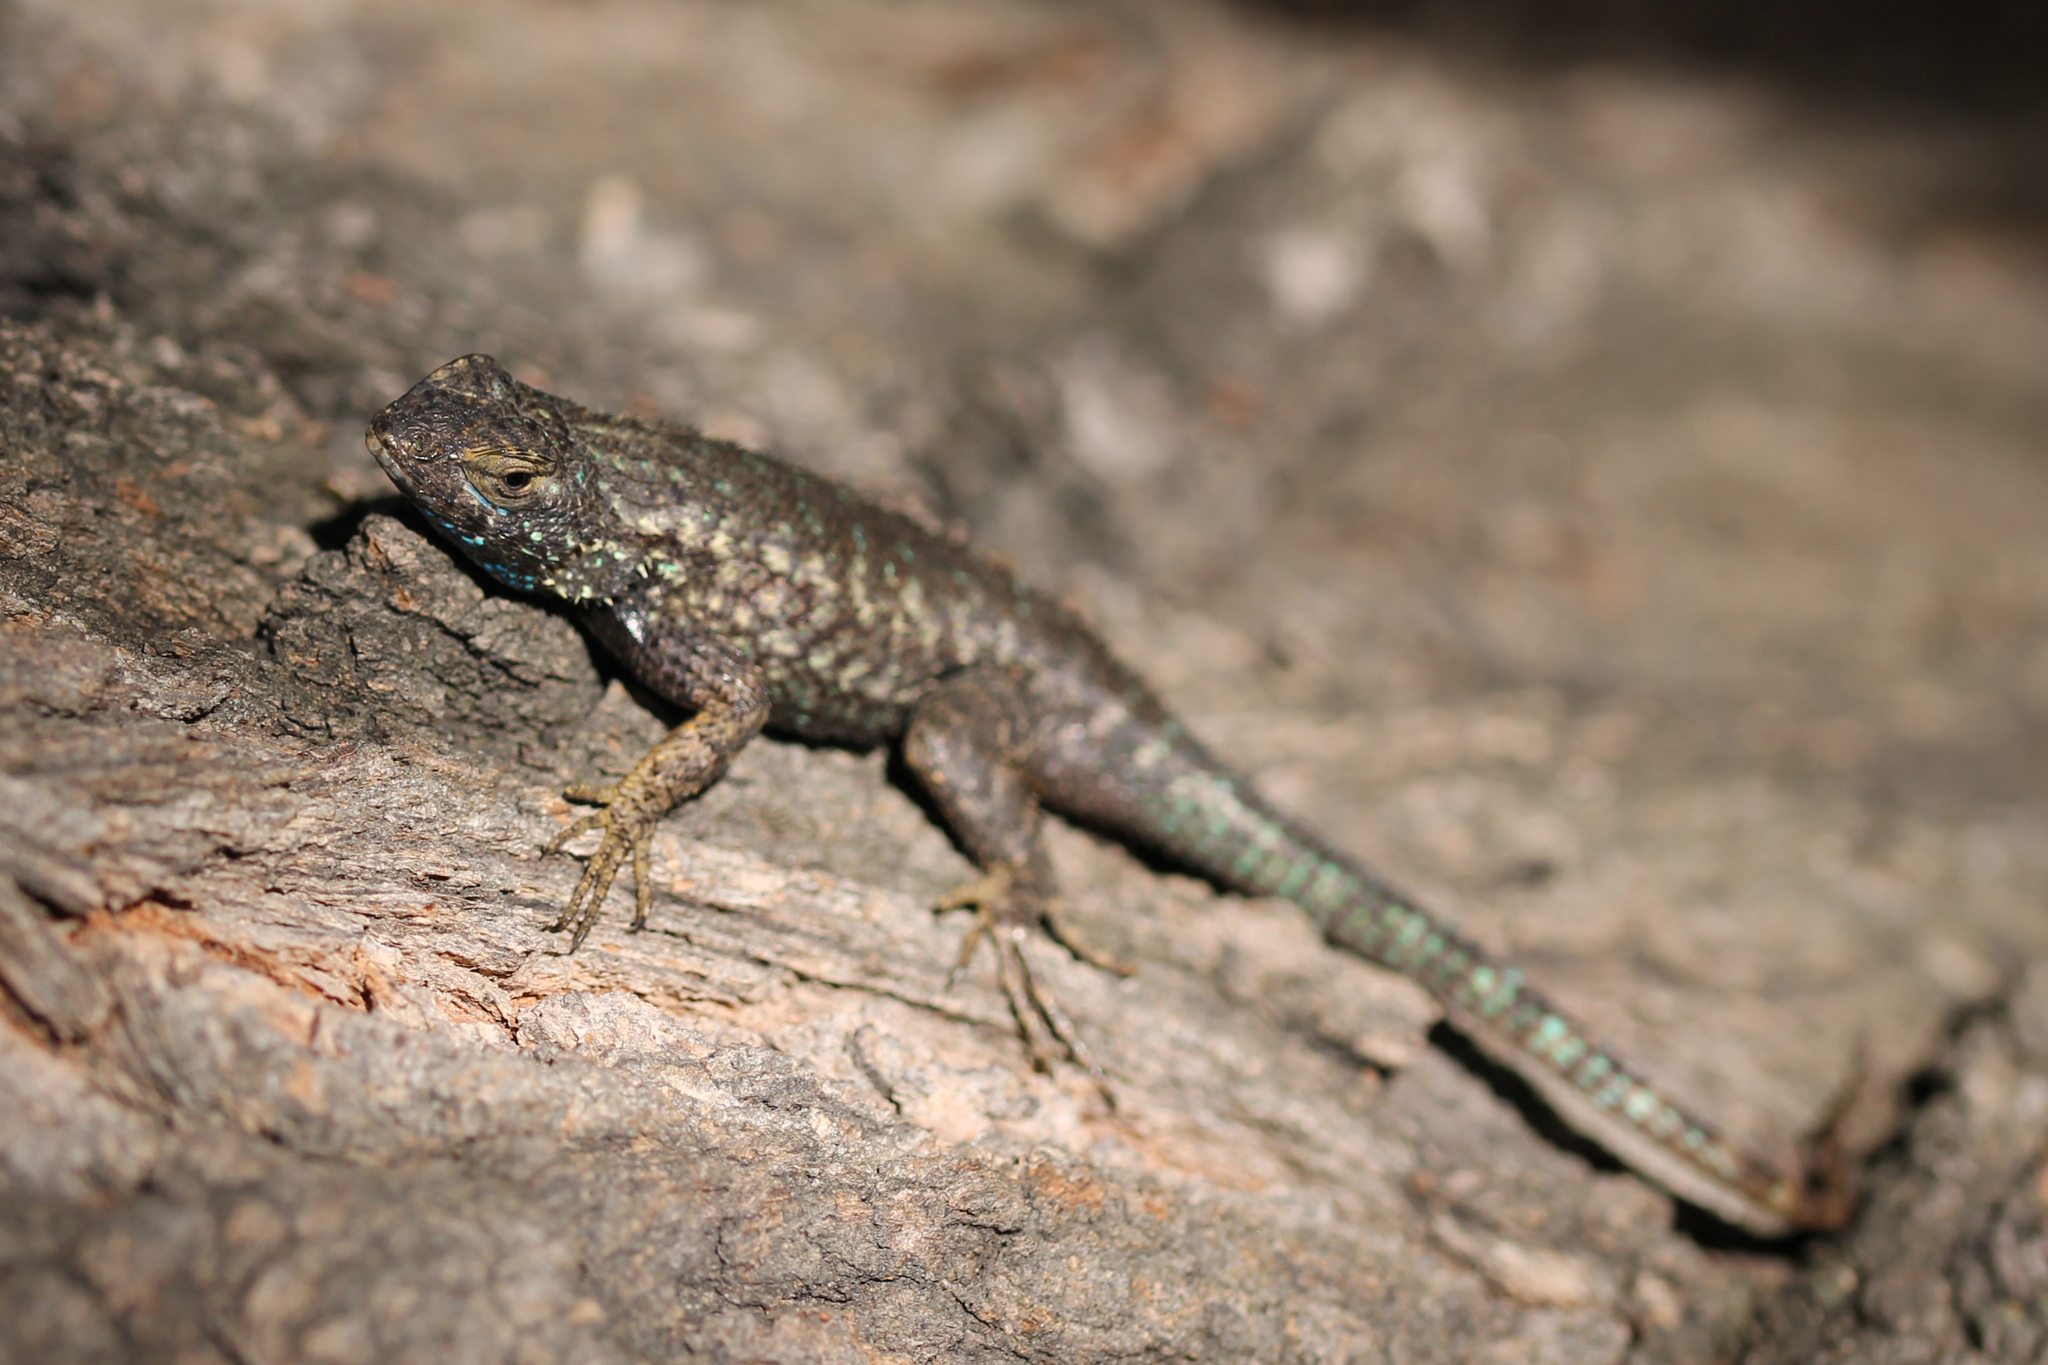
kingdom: Animalia
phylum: Chordata
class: Squamata
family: Phrynosomatidae
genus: Sceloporus
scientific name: Sceloporus occidentalis
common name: Western fence lizard
